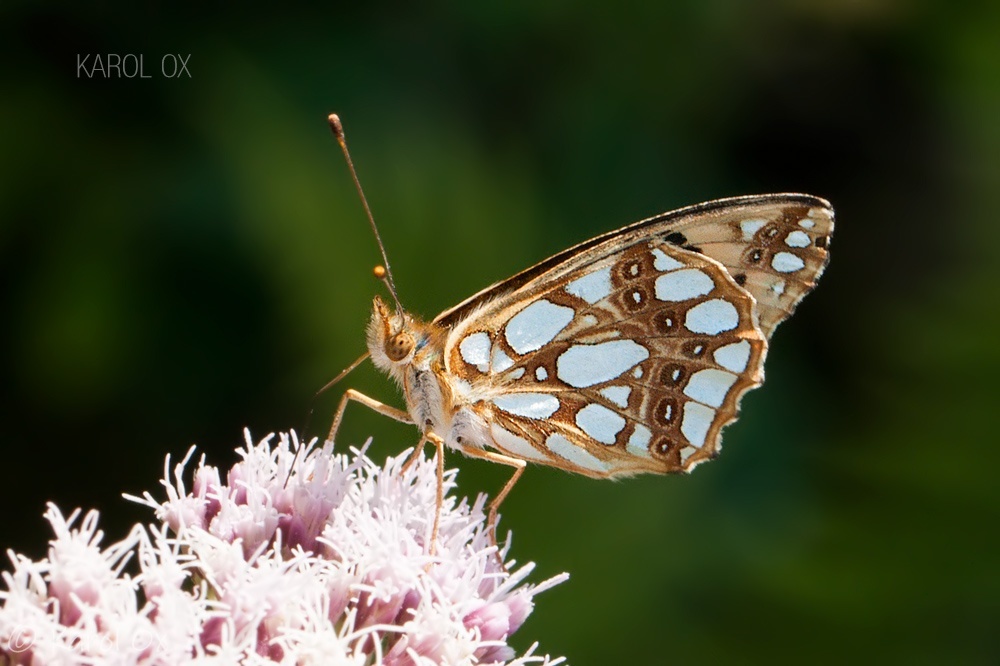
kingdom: Animalia
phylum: Arthropoda
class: Insecta
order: Lepidoptera
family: Nymphalidae
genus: Issoria
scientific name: Issoria lathonia
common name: Queen of spain fritillary
